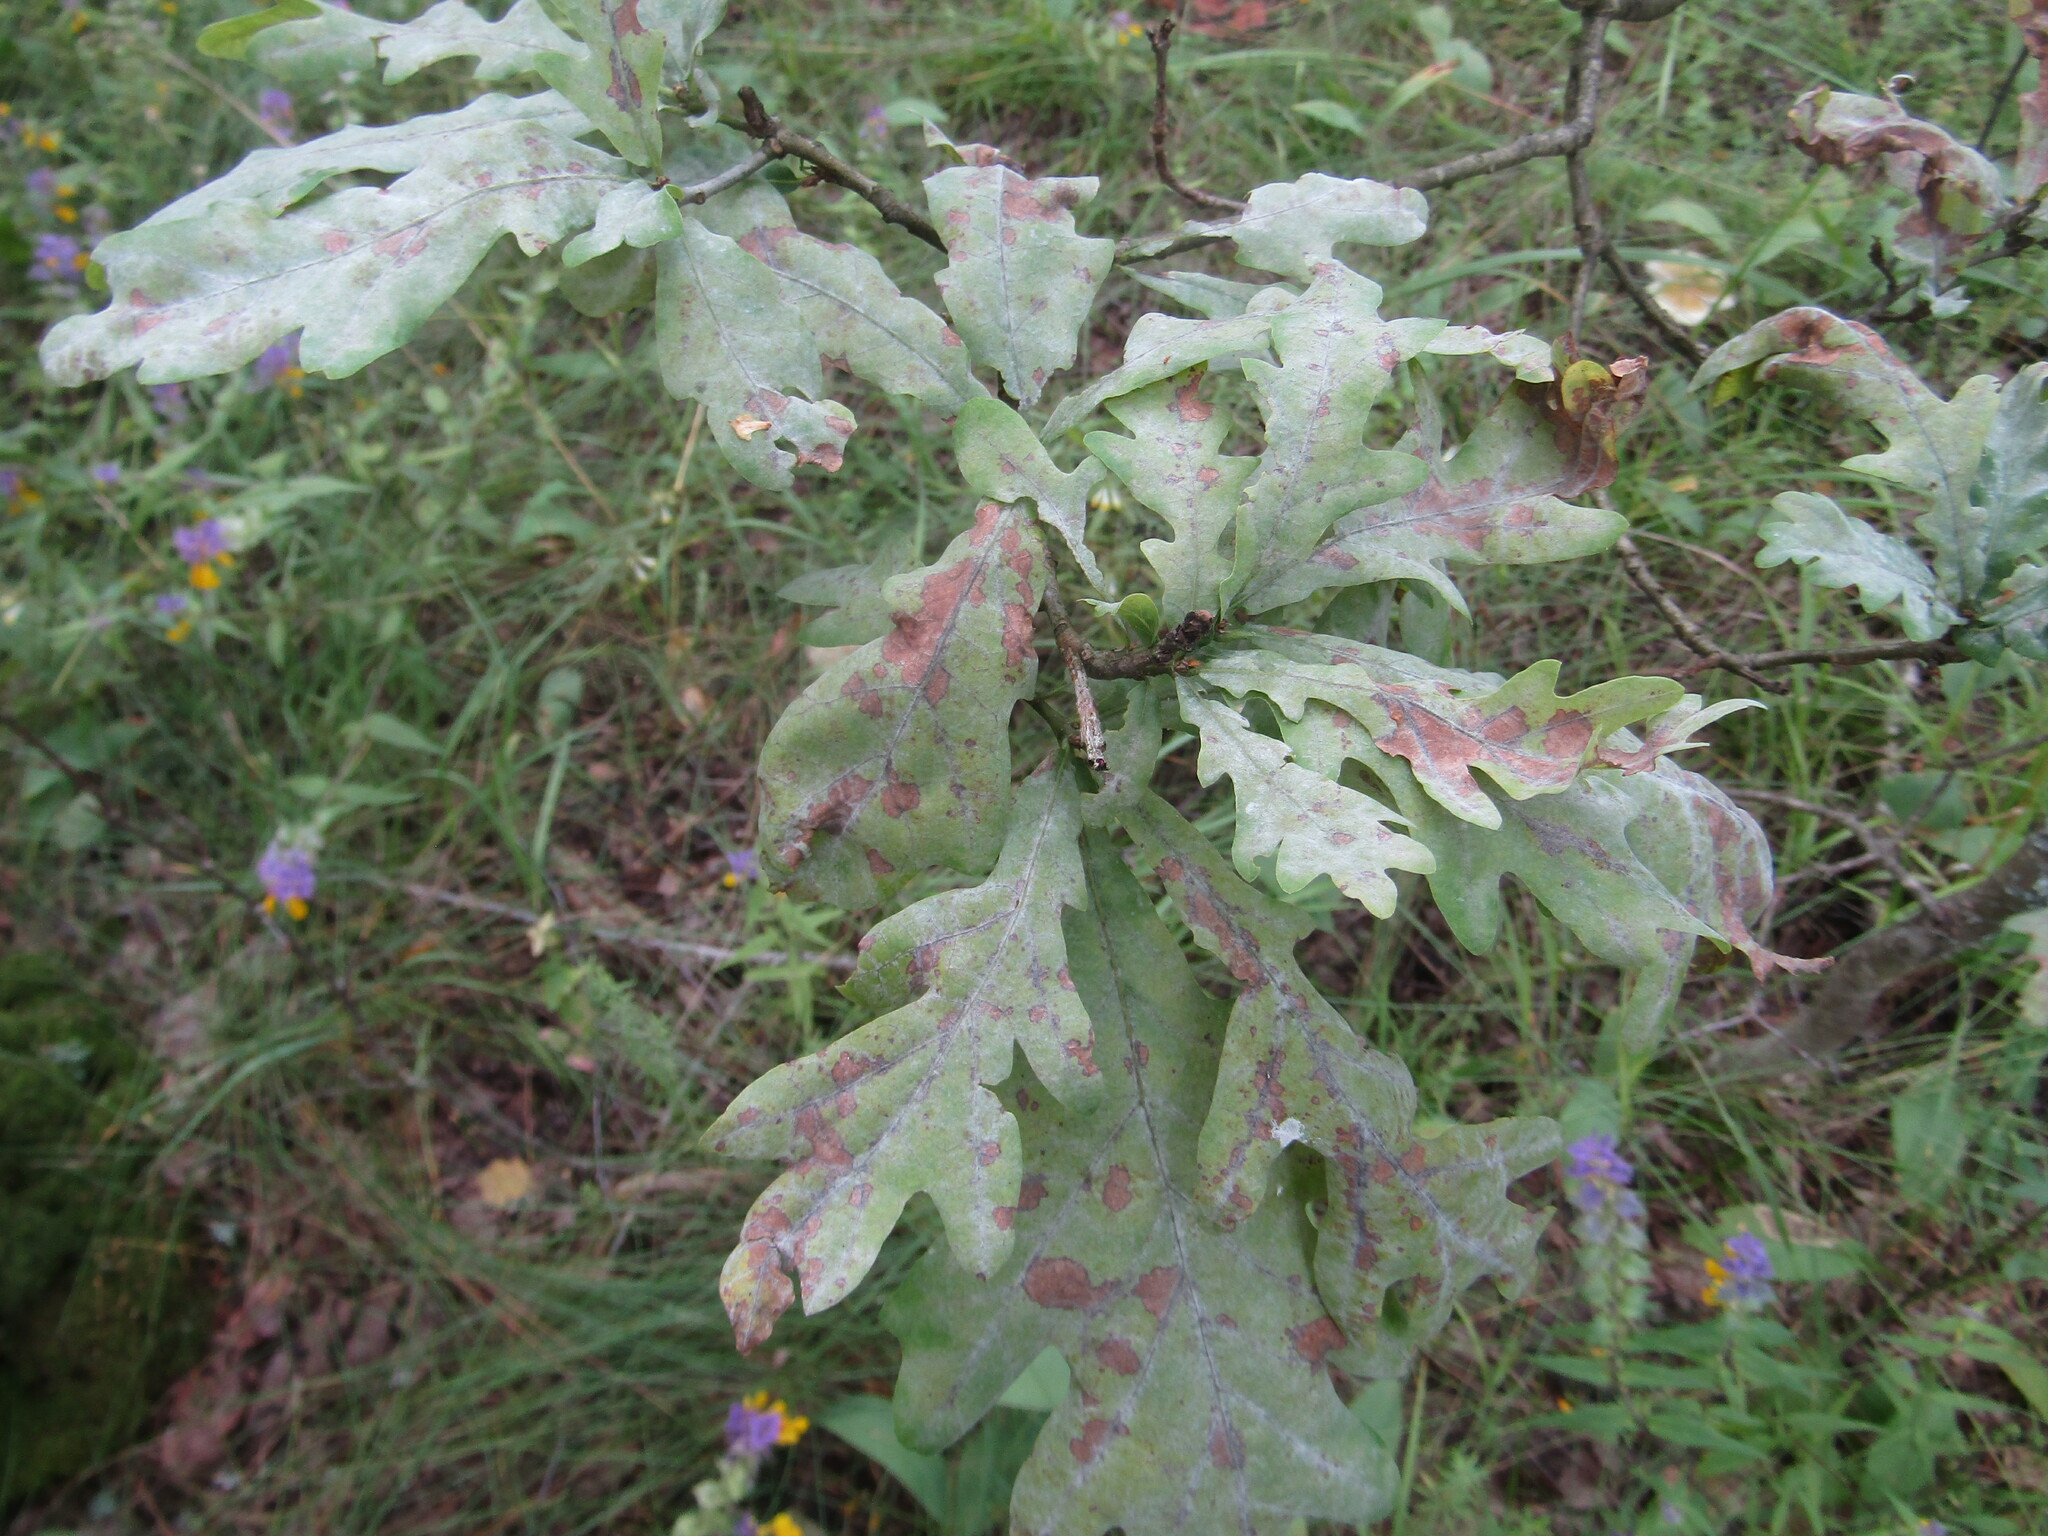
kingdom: Plantae
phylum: Tracheophyta
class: Magnoliopsida
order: Fagales
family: Fagaceae
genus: Quercus
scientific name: Quercus robur
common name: Pedunculate oak
